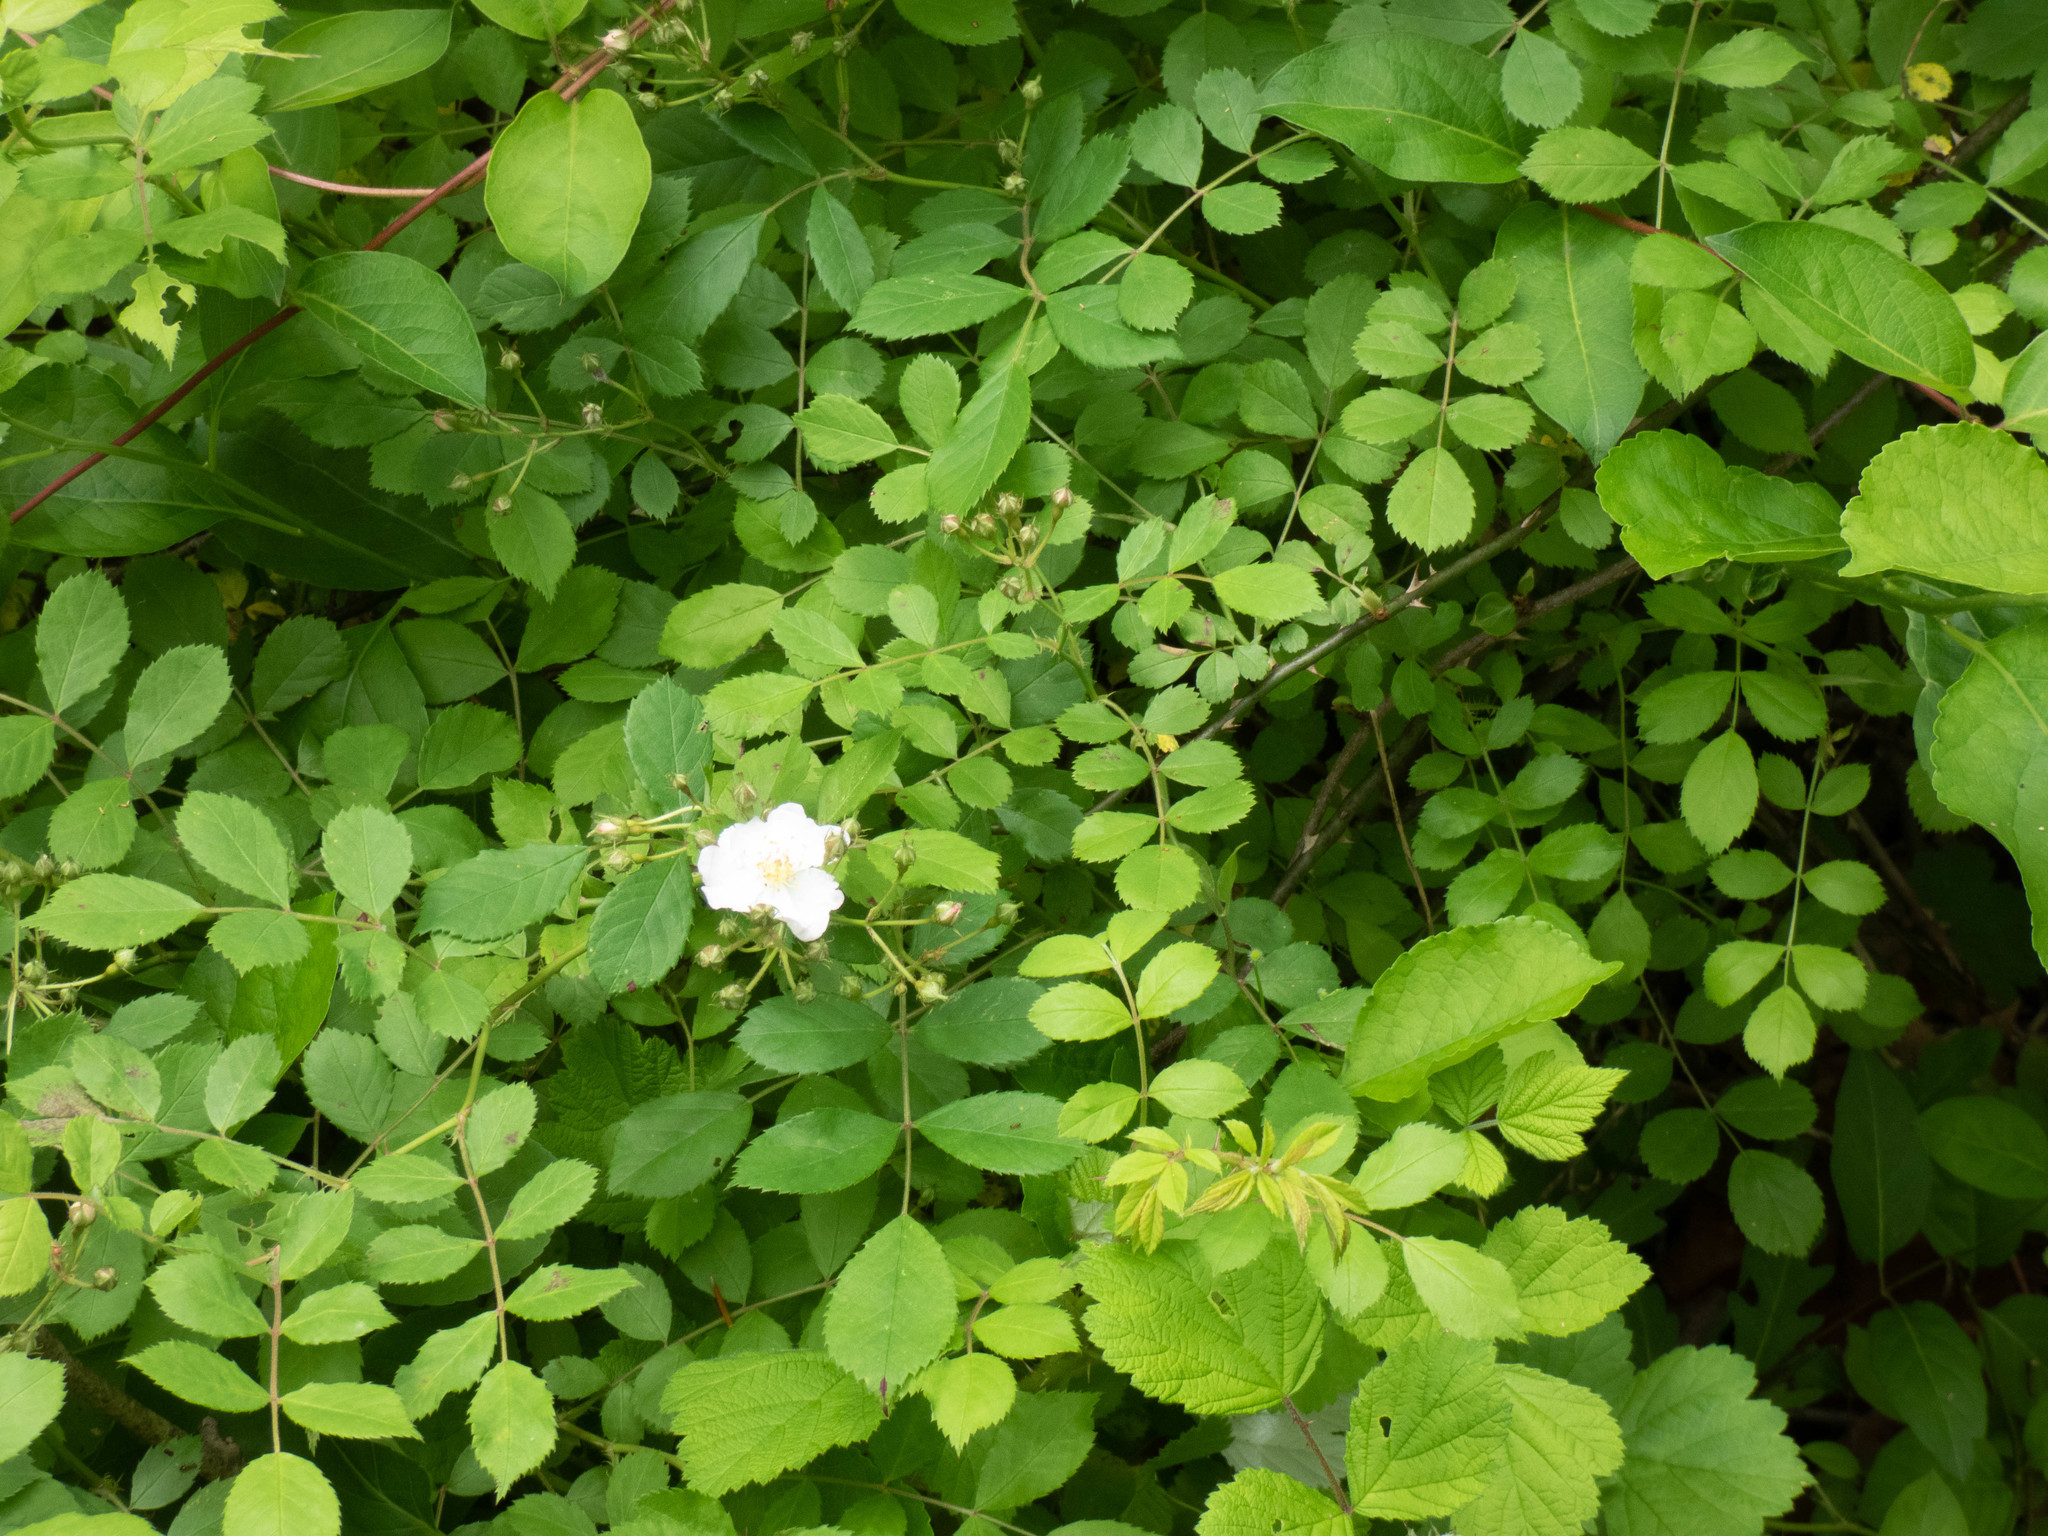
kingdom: Plantae
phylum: Tracheophyta
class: Magnoliopsida
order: Rosales
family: Rosaceae
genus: Rosa
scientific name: Rosa multiflora
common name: Multiflora rose
